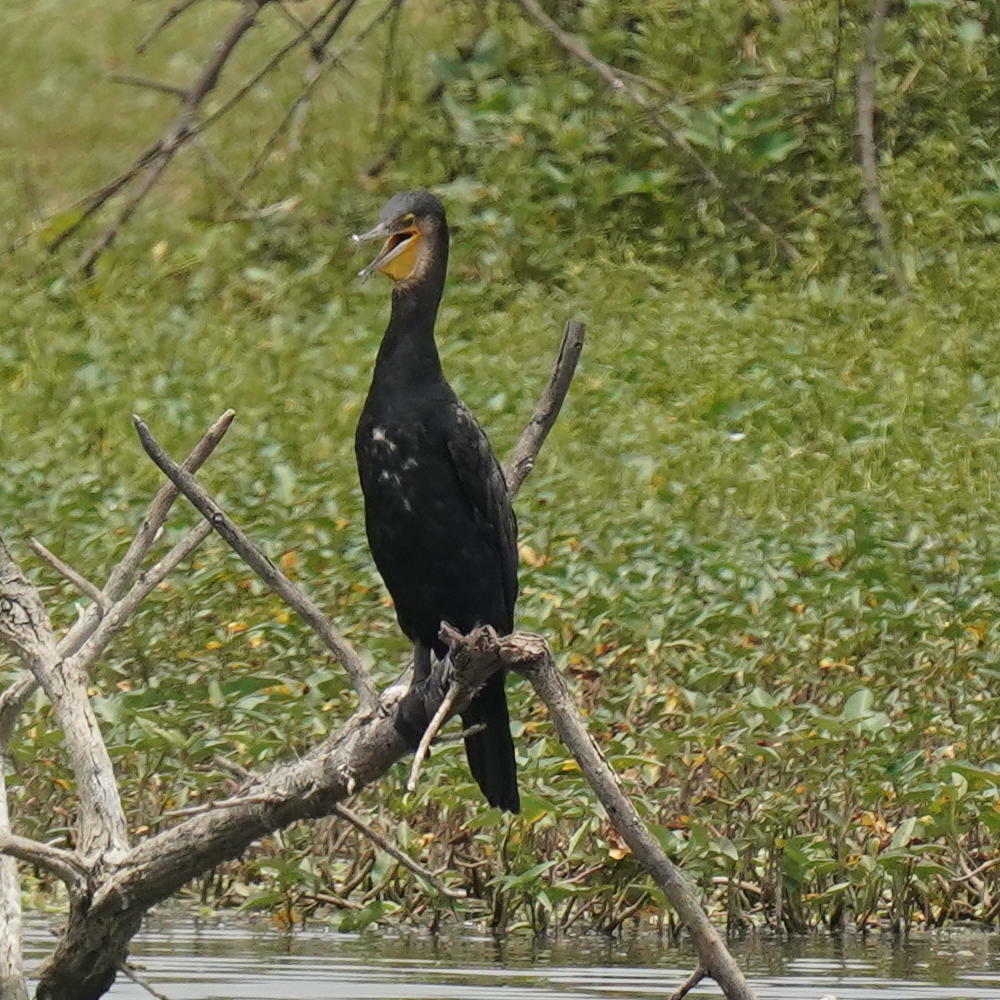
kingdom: Animalia
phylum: Chordata
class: Aves
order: Suliformes
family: Phalacrocoracidae
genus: Phalacrocorax
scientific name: Phalacrocorax carbo
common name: Great cormorant
